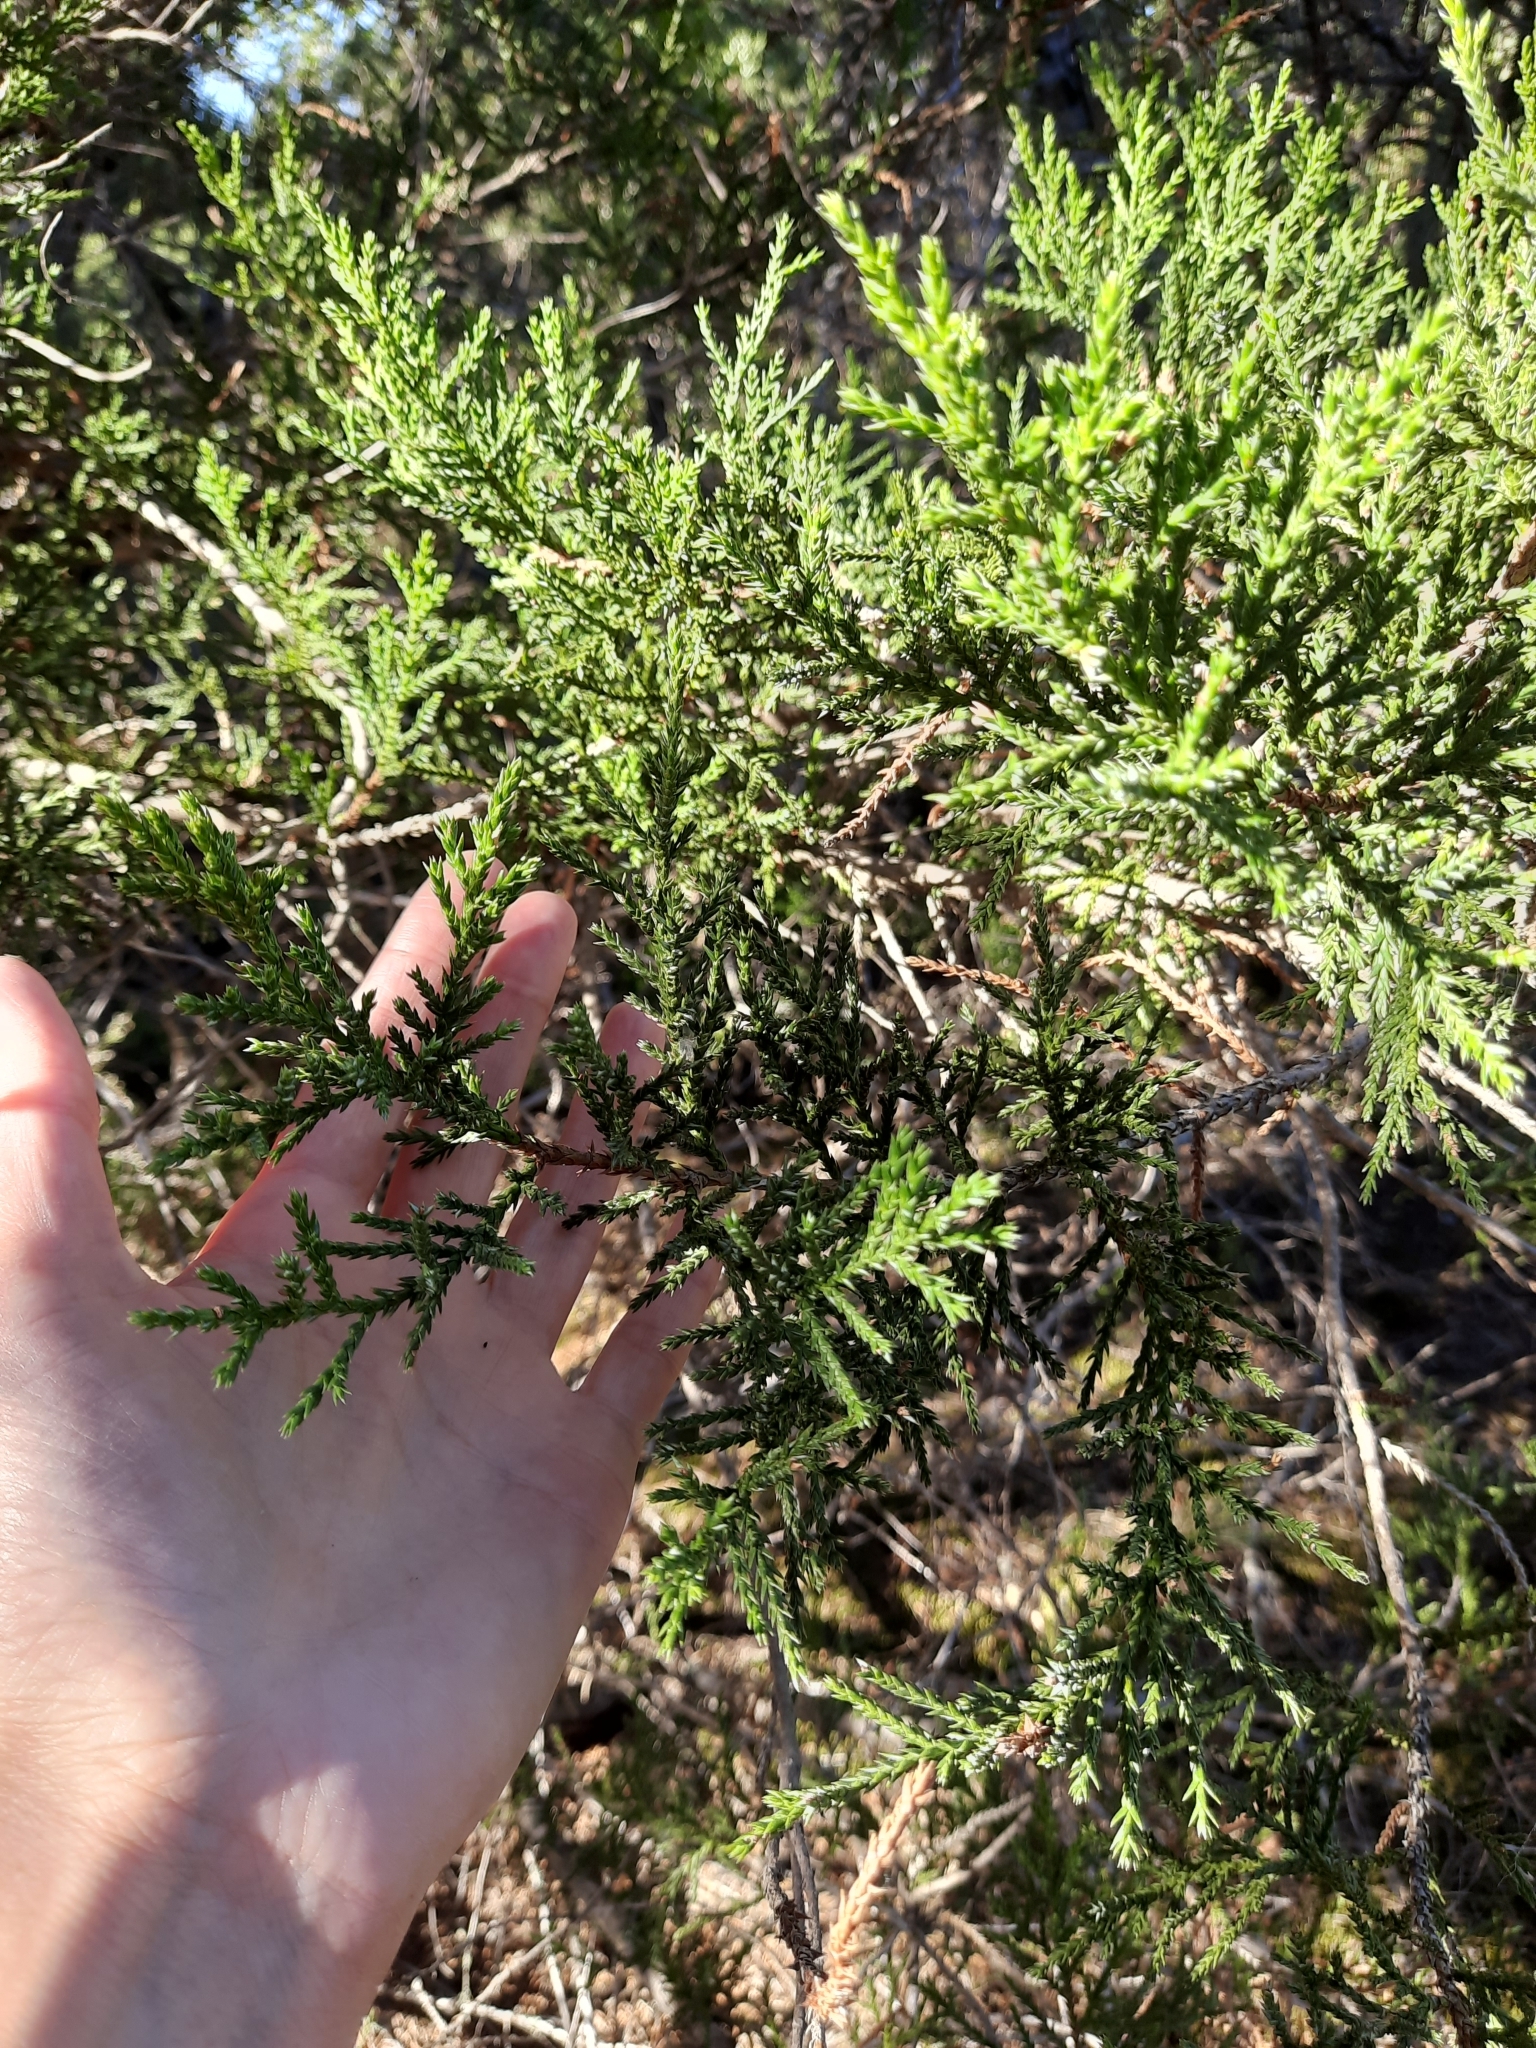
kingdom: Plantae
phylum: Tracheophyta
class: Pinopsida
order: Pinales
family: Cupressaceae
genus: Juniperus
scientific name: Juniperus foetidissima
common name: Stinking juniper
